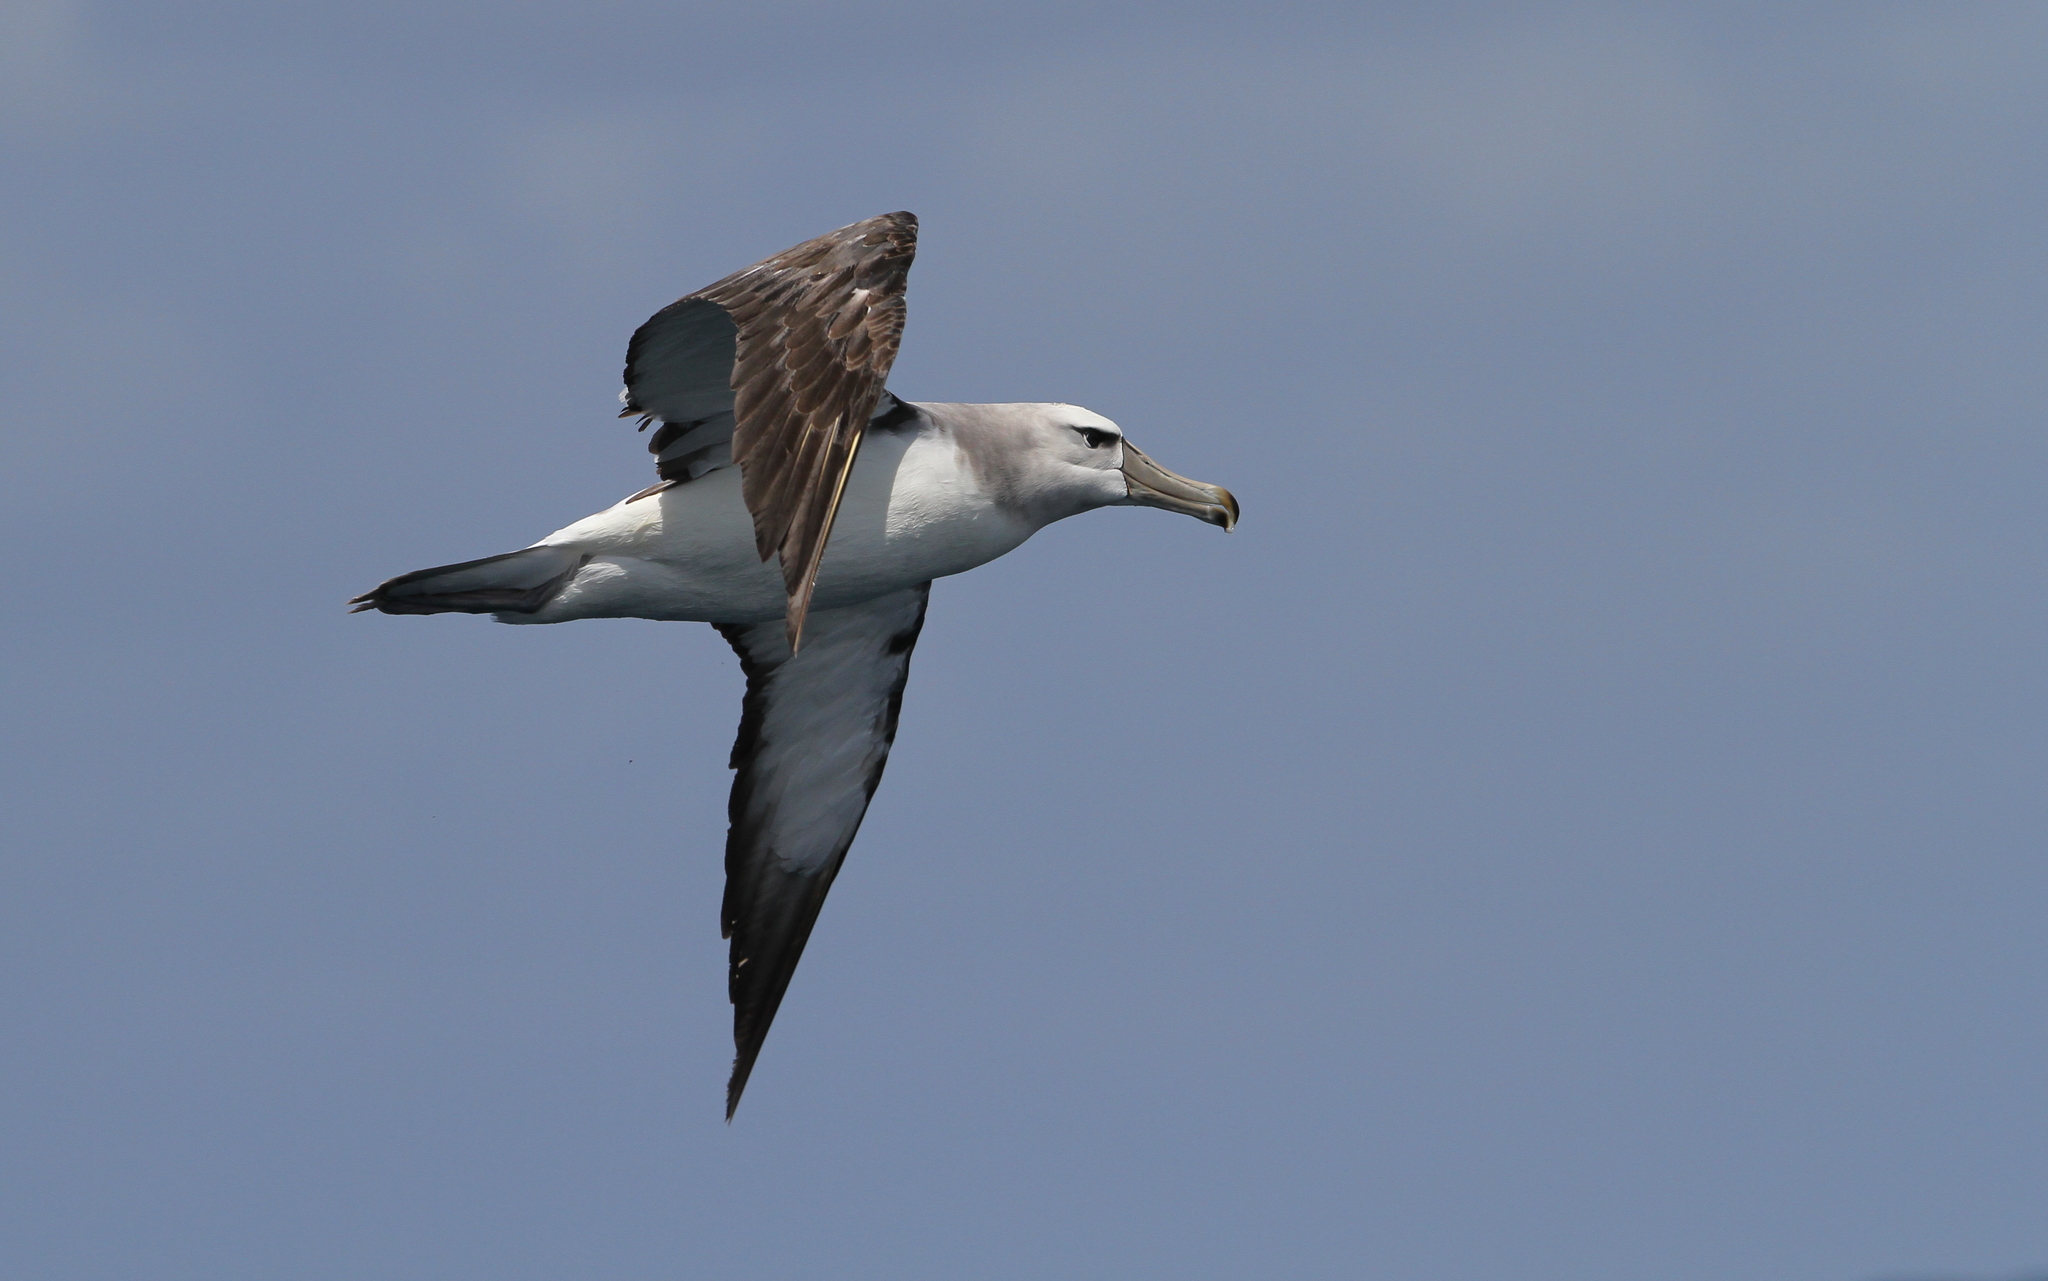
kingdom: Animalia
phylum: Chordata
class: Aves
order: Procellariiformes
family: Diomedeidae
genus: Thalassarche
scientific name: Thalassarche cauta
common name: Shy albatross
